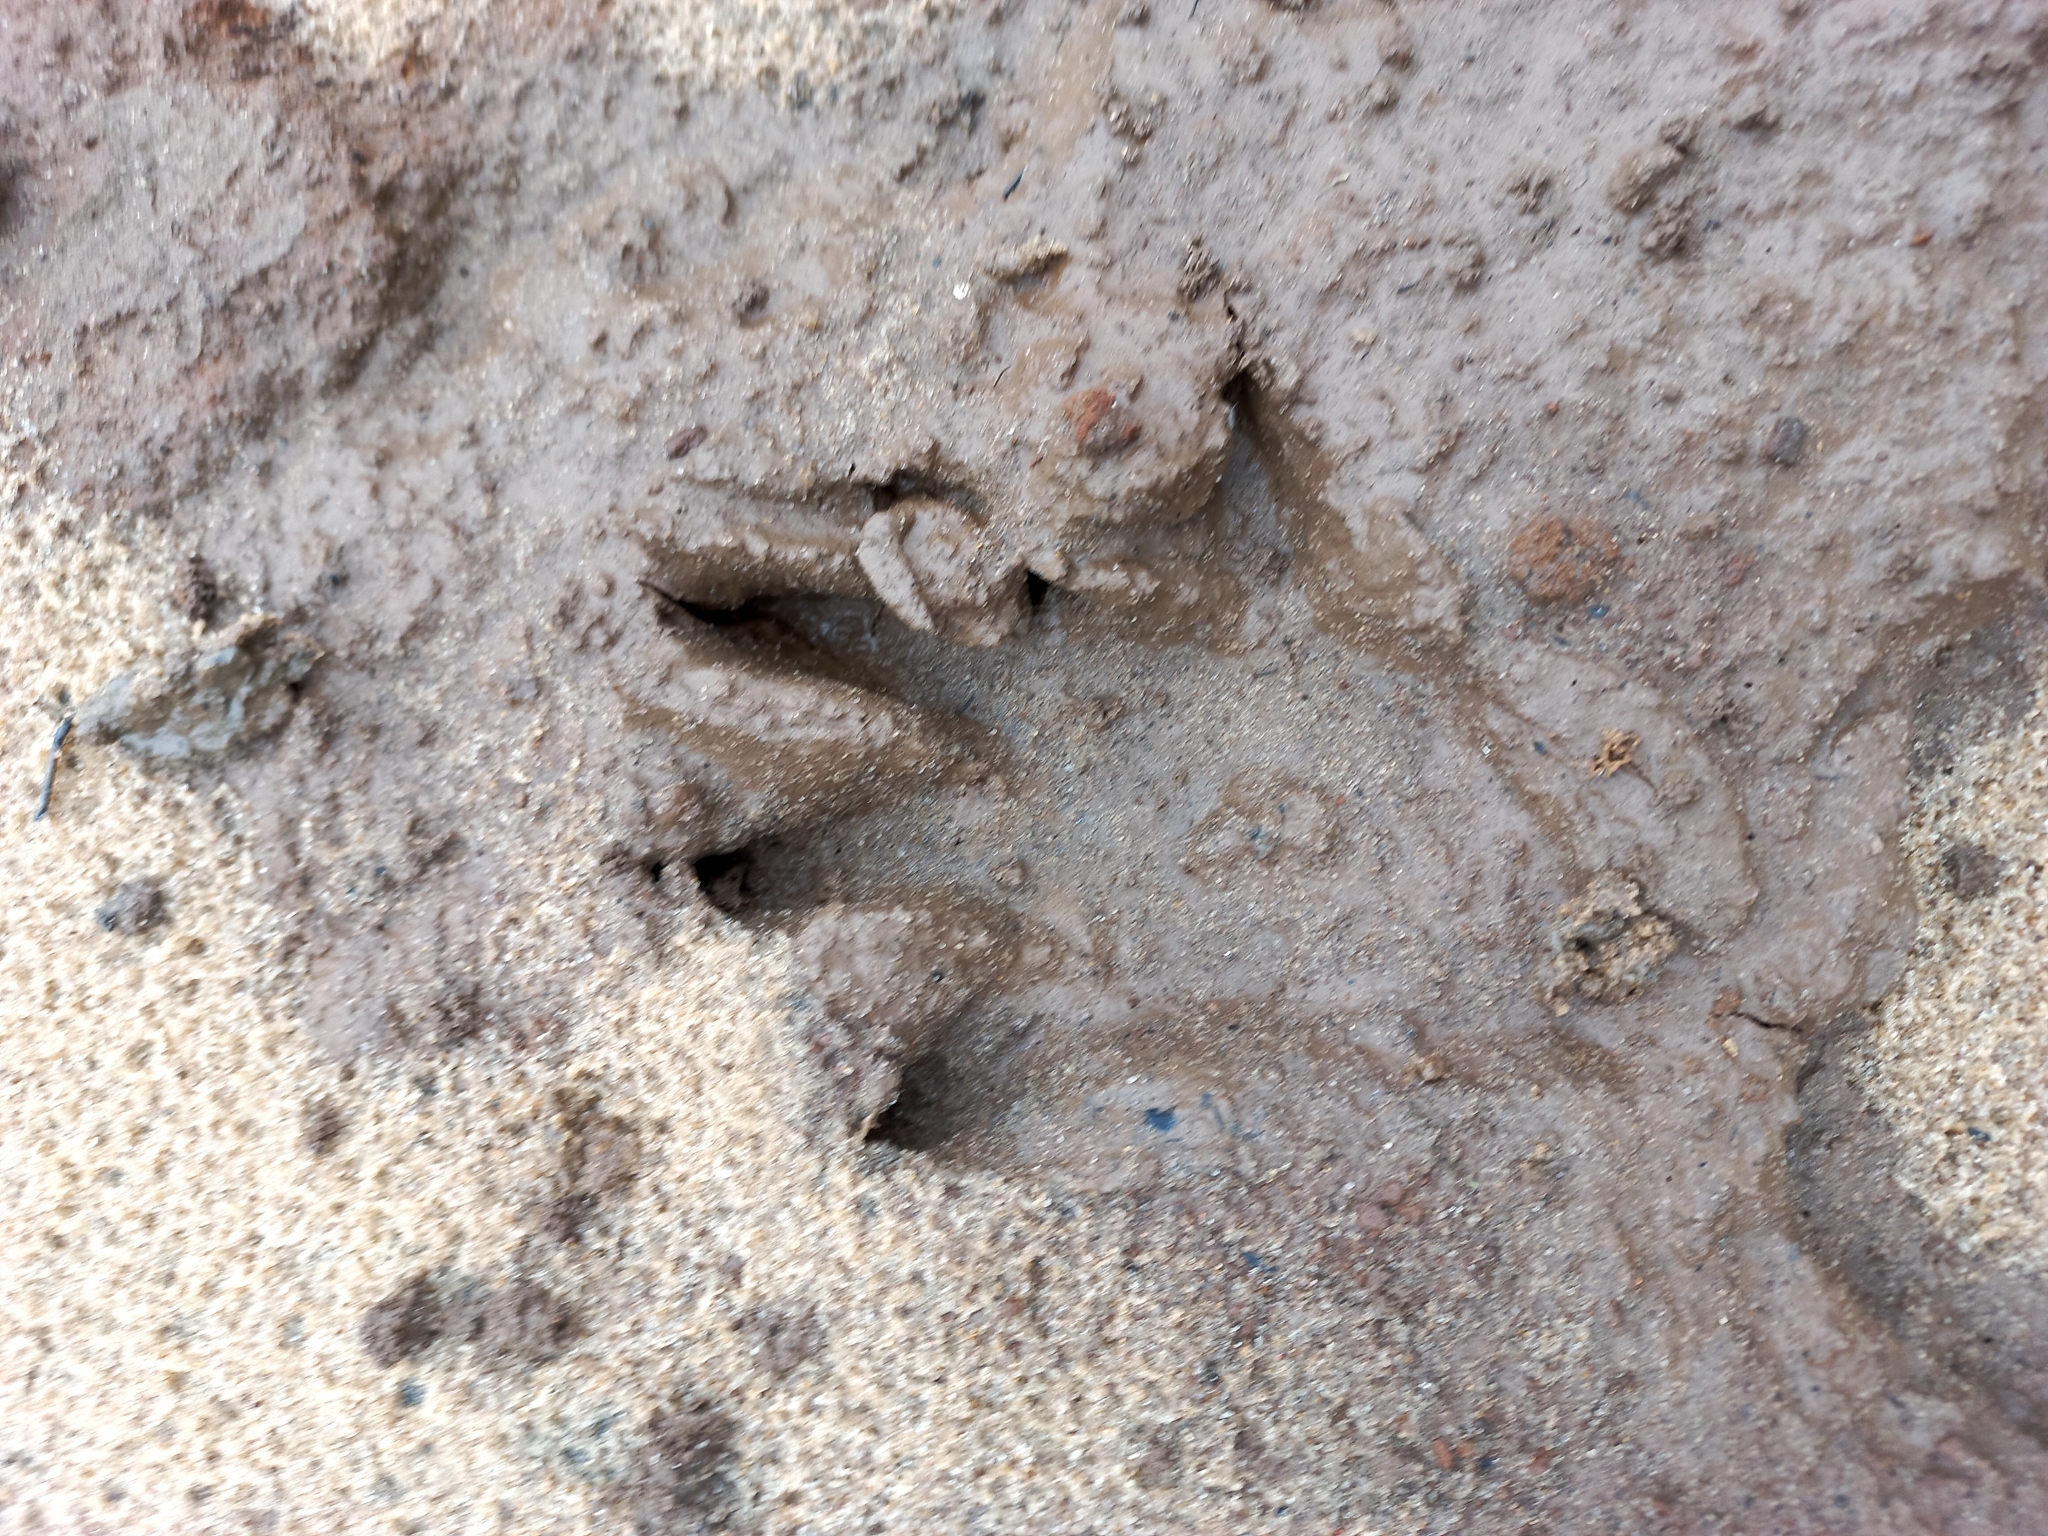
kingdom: Animalia
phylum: Chordata
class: Mammalia
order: Carnivora
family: Procyonidae
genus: Procyon
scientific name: Procyon cancrivorus
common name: Crab-eating raccoon
